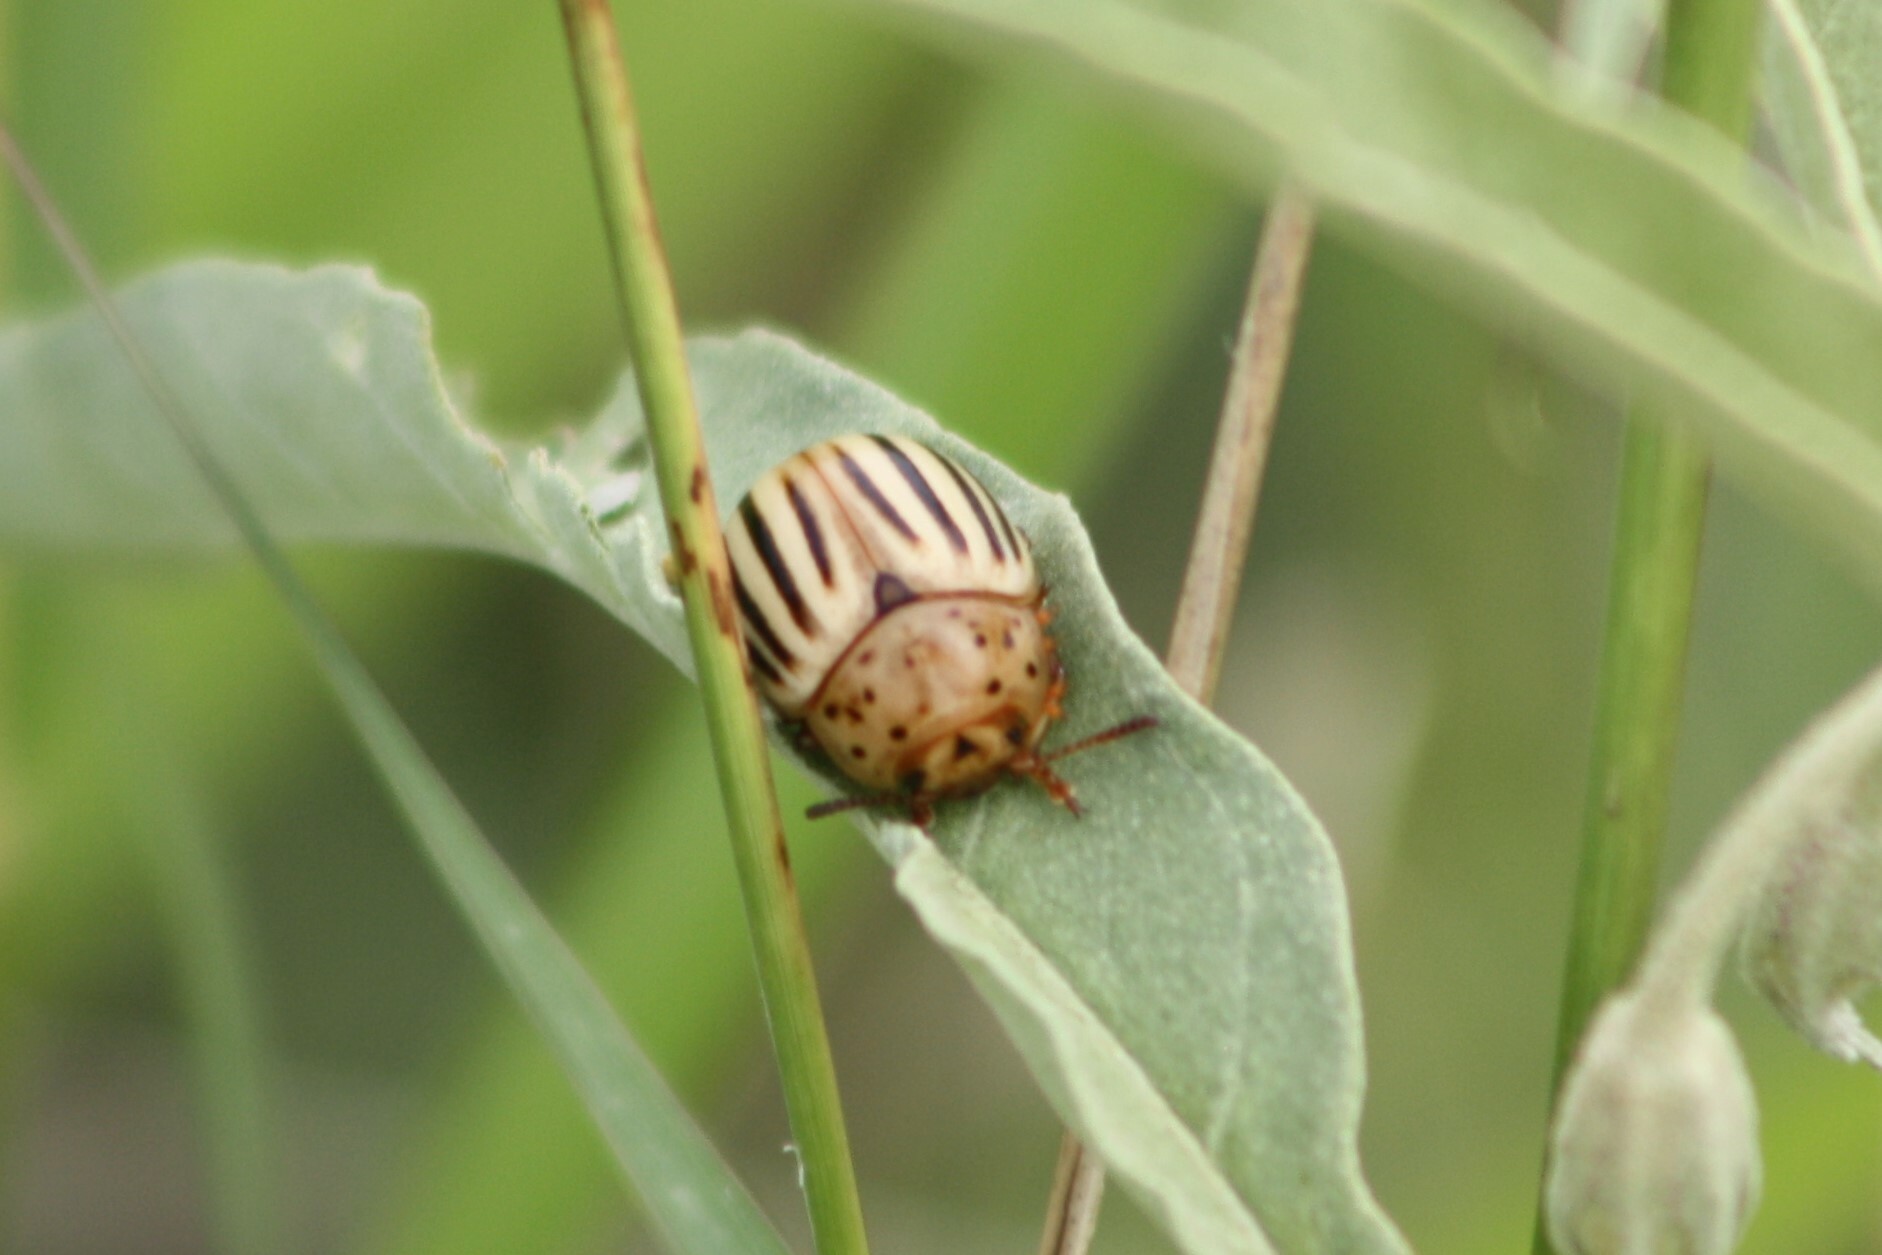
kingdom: Animalia
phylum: Arthropoda
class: Insecta
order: Coleoptera
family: Chrysomelidae
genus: Leptinotarsa
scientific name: Leptinotarsa texana
